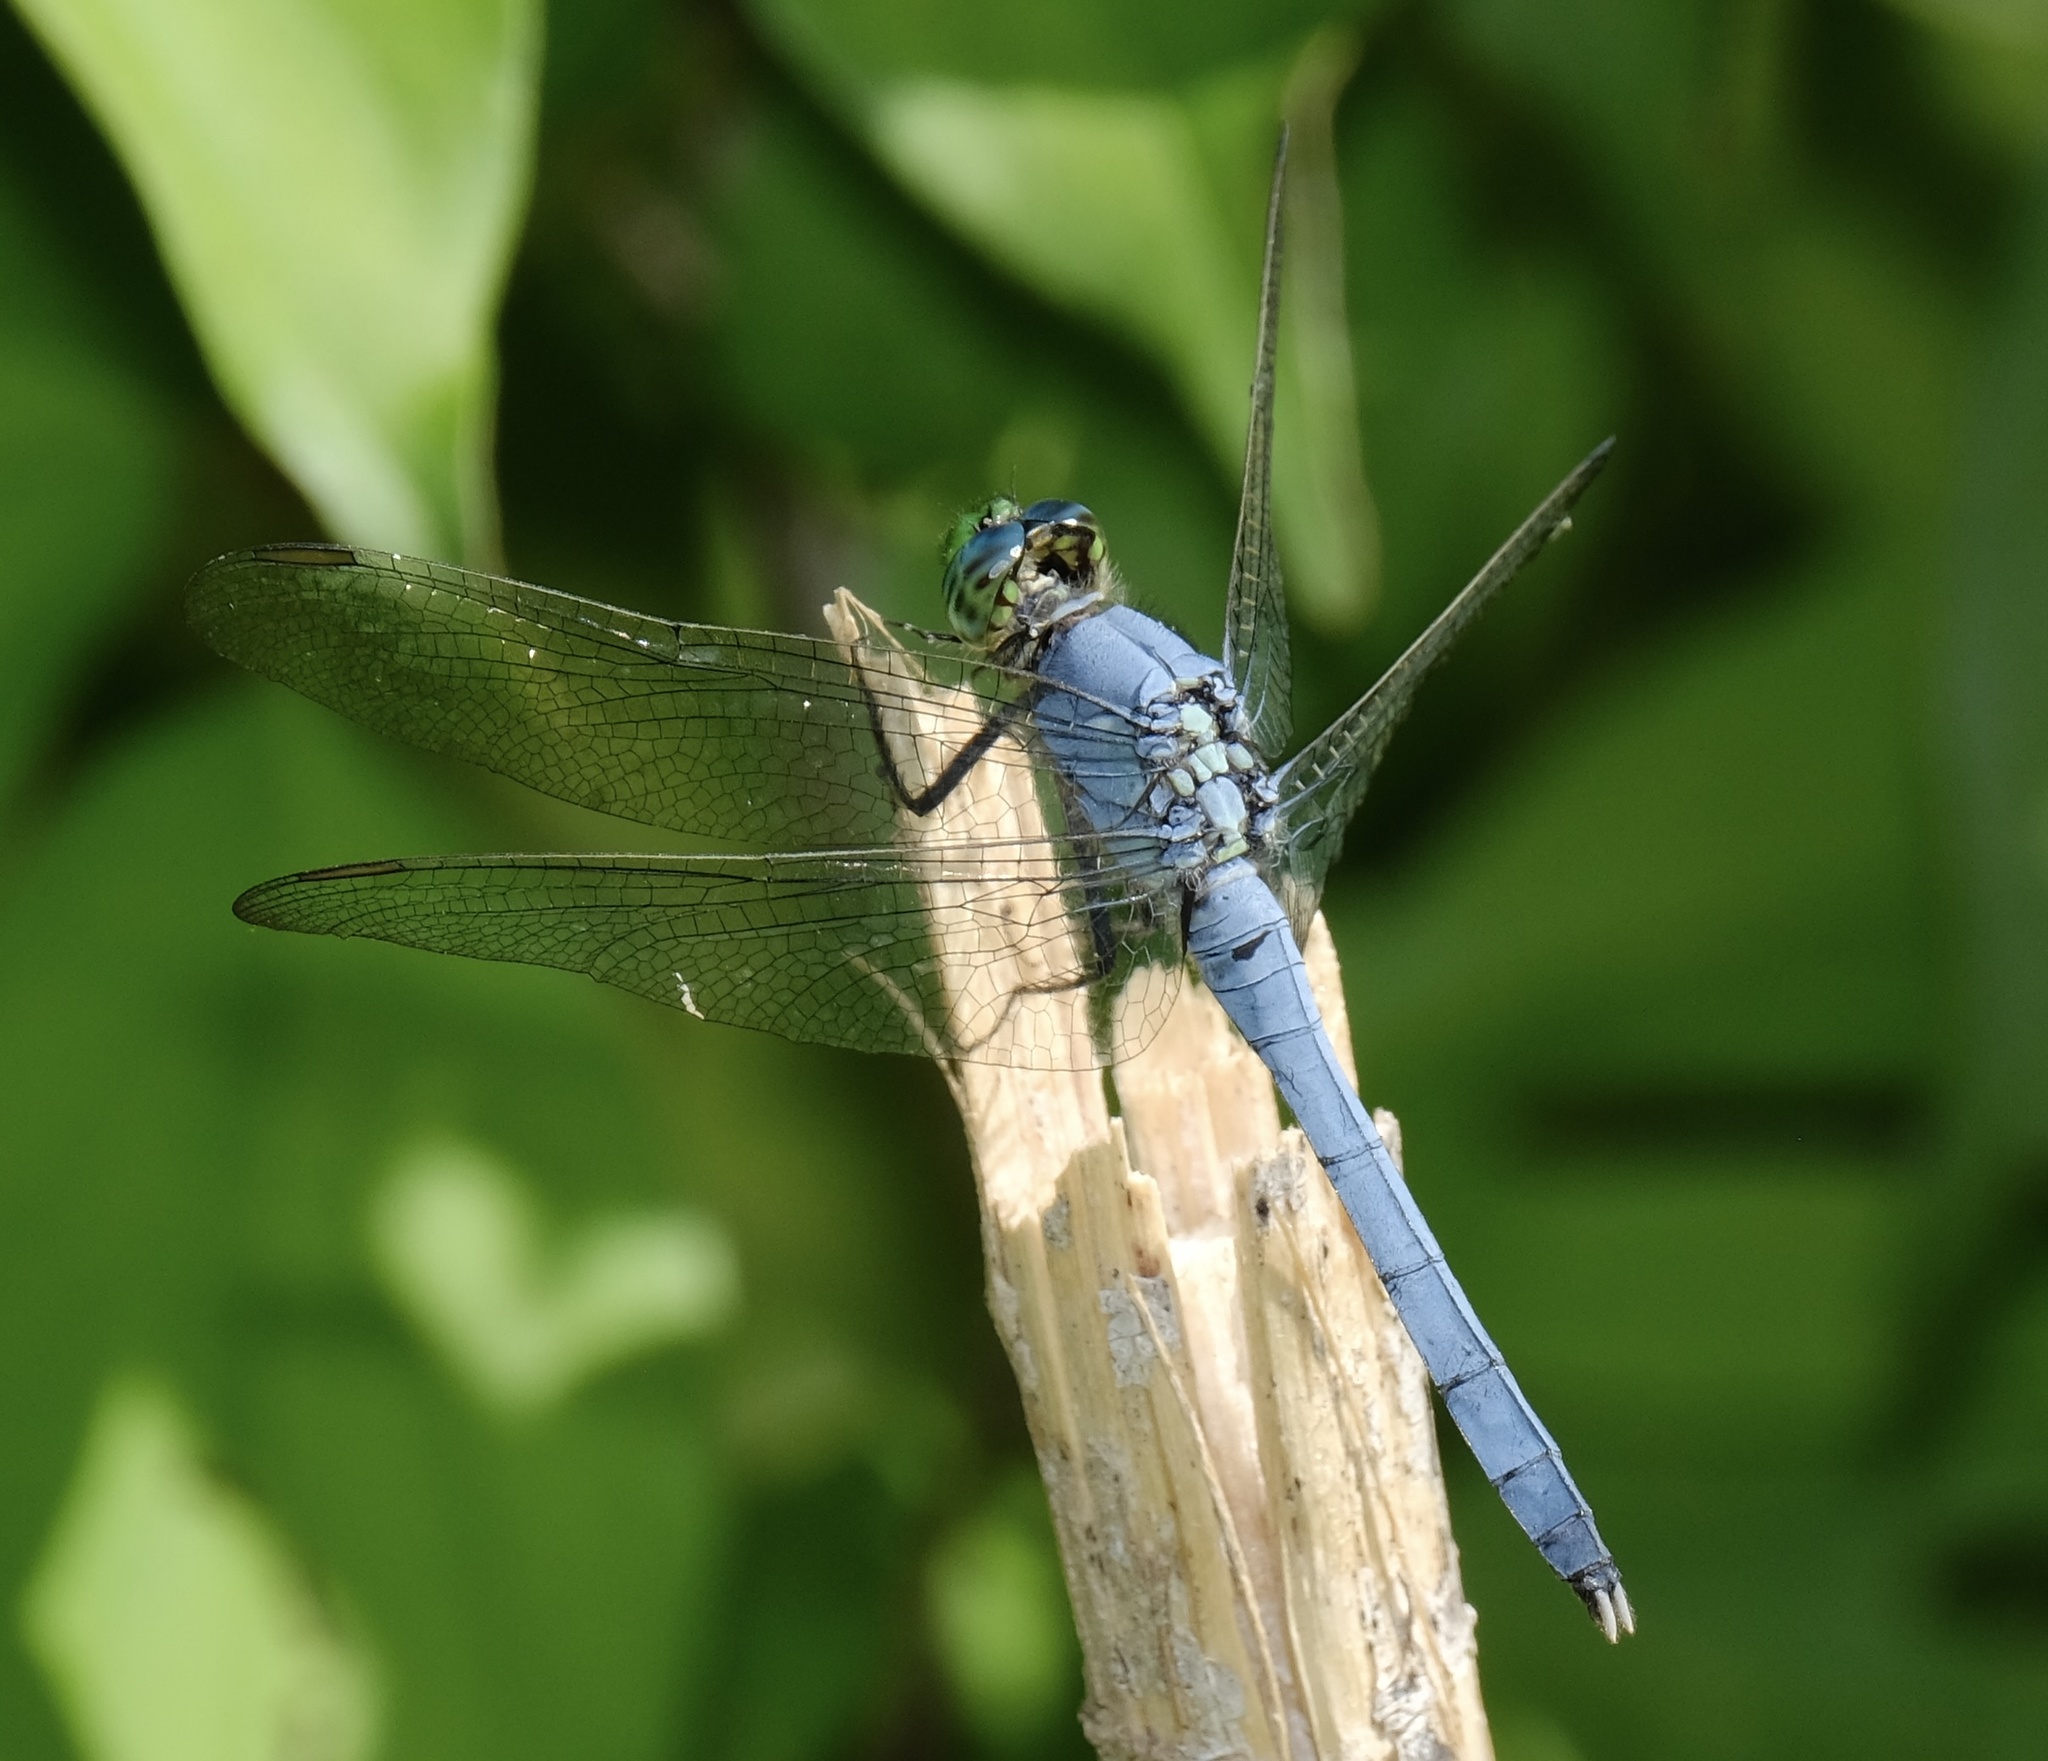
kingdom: Animalia
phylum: Arthropoda
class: Insecta
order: Odonata
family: Libellulidae
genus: Erythemis
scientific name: Erythemis simplicicollis
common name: Eastern pondhawk
